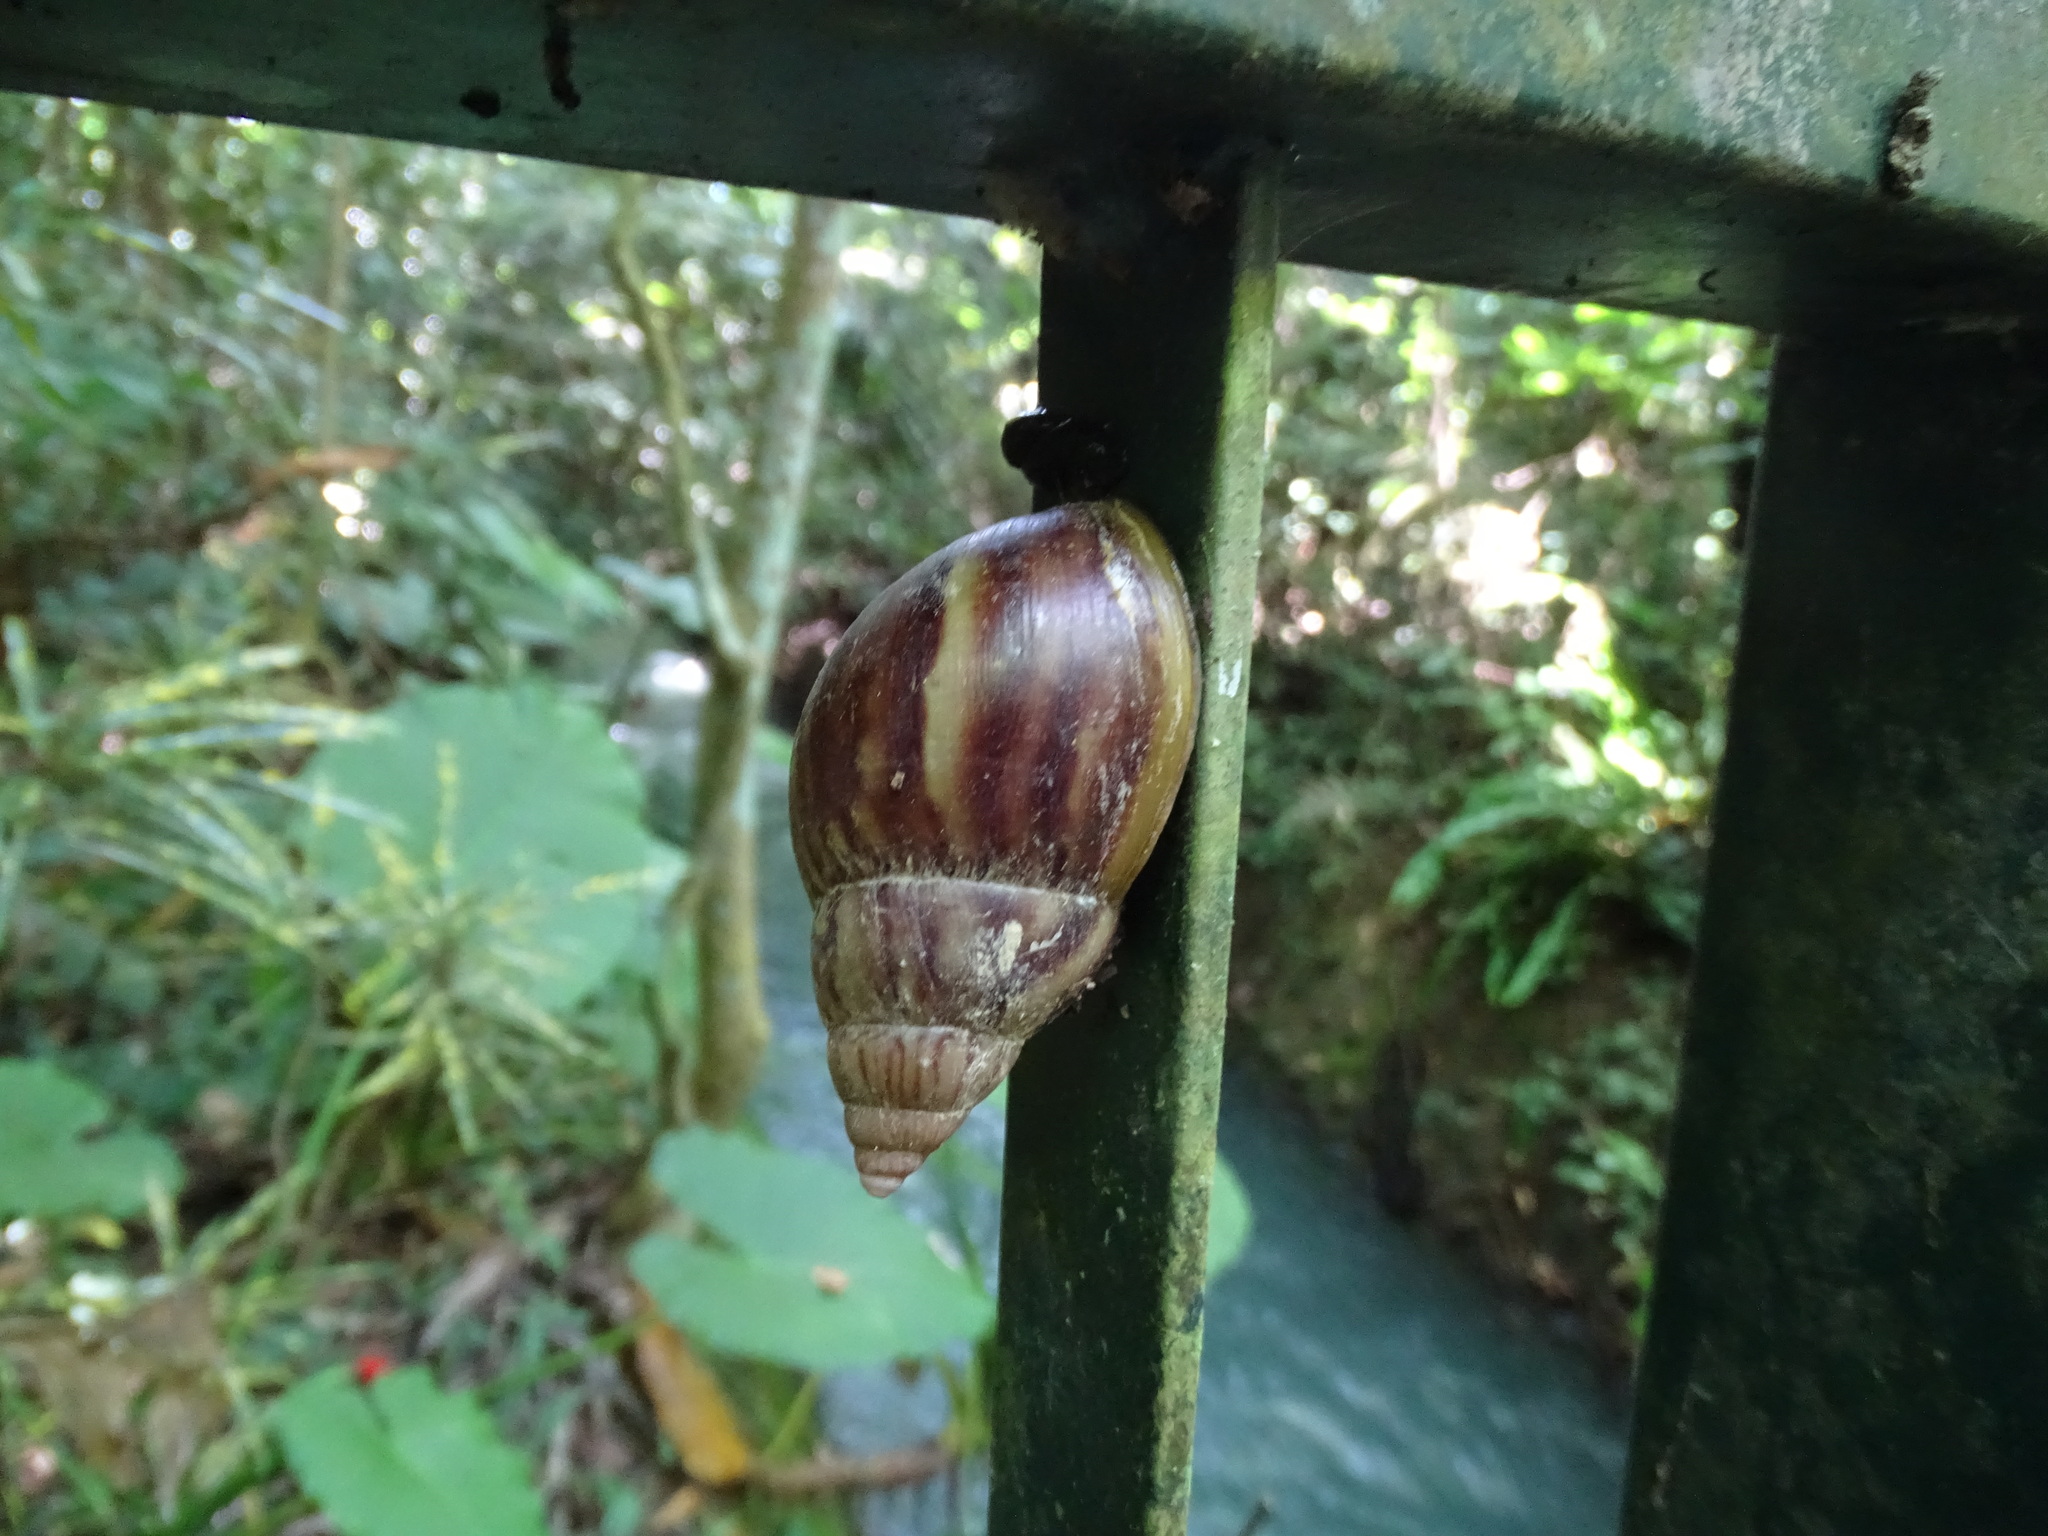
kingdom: Animalia
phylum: Mollusca
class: Gastropoda
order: Stylommatophora
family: Achatinidae
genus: Lissachatina
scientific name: Lissachatina fulica
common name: Giant african snail
